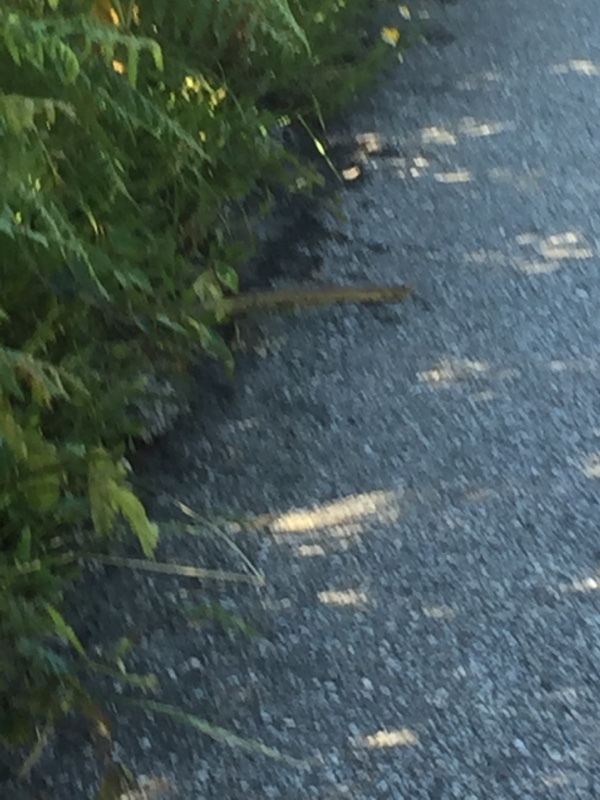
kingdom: Animalia
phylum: Chordata
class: Squamata
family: Colubridae
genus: Zamenis
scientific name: Zamenis scalaris
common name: Ladder snakes
